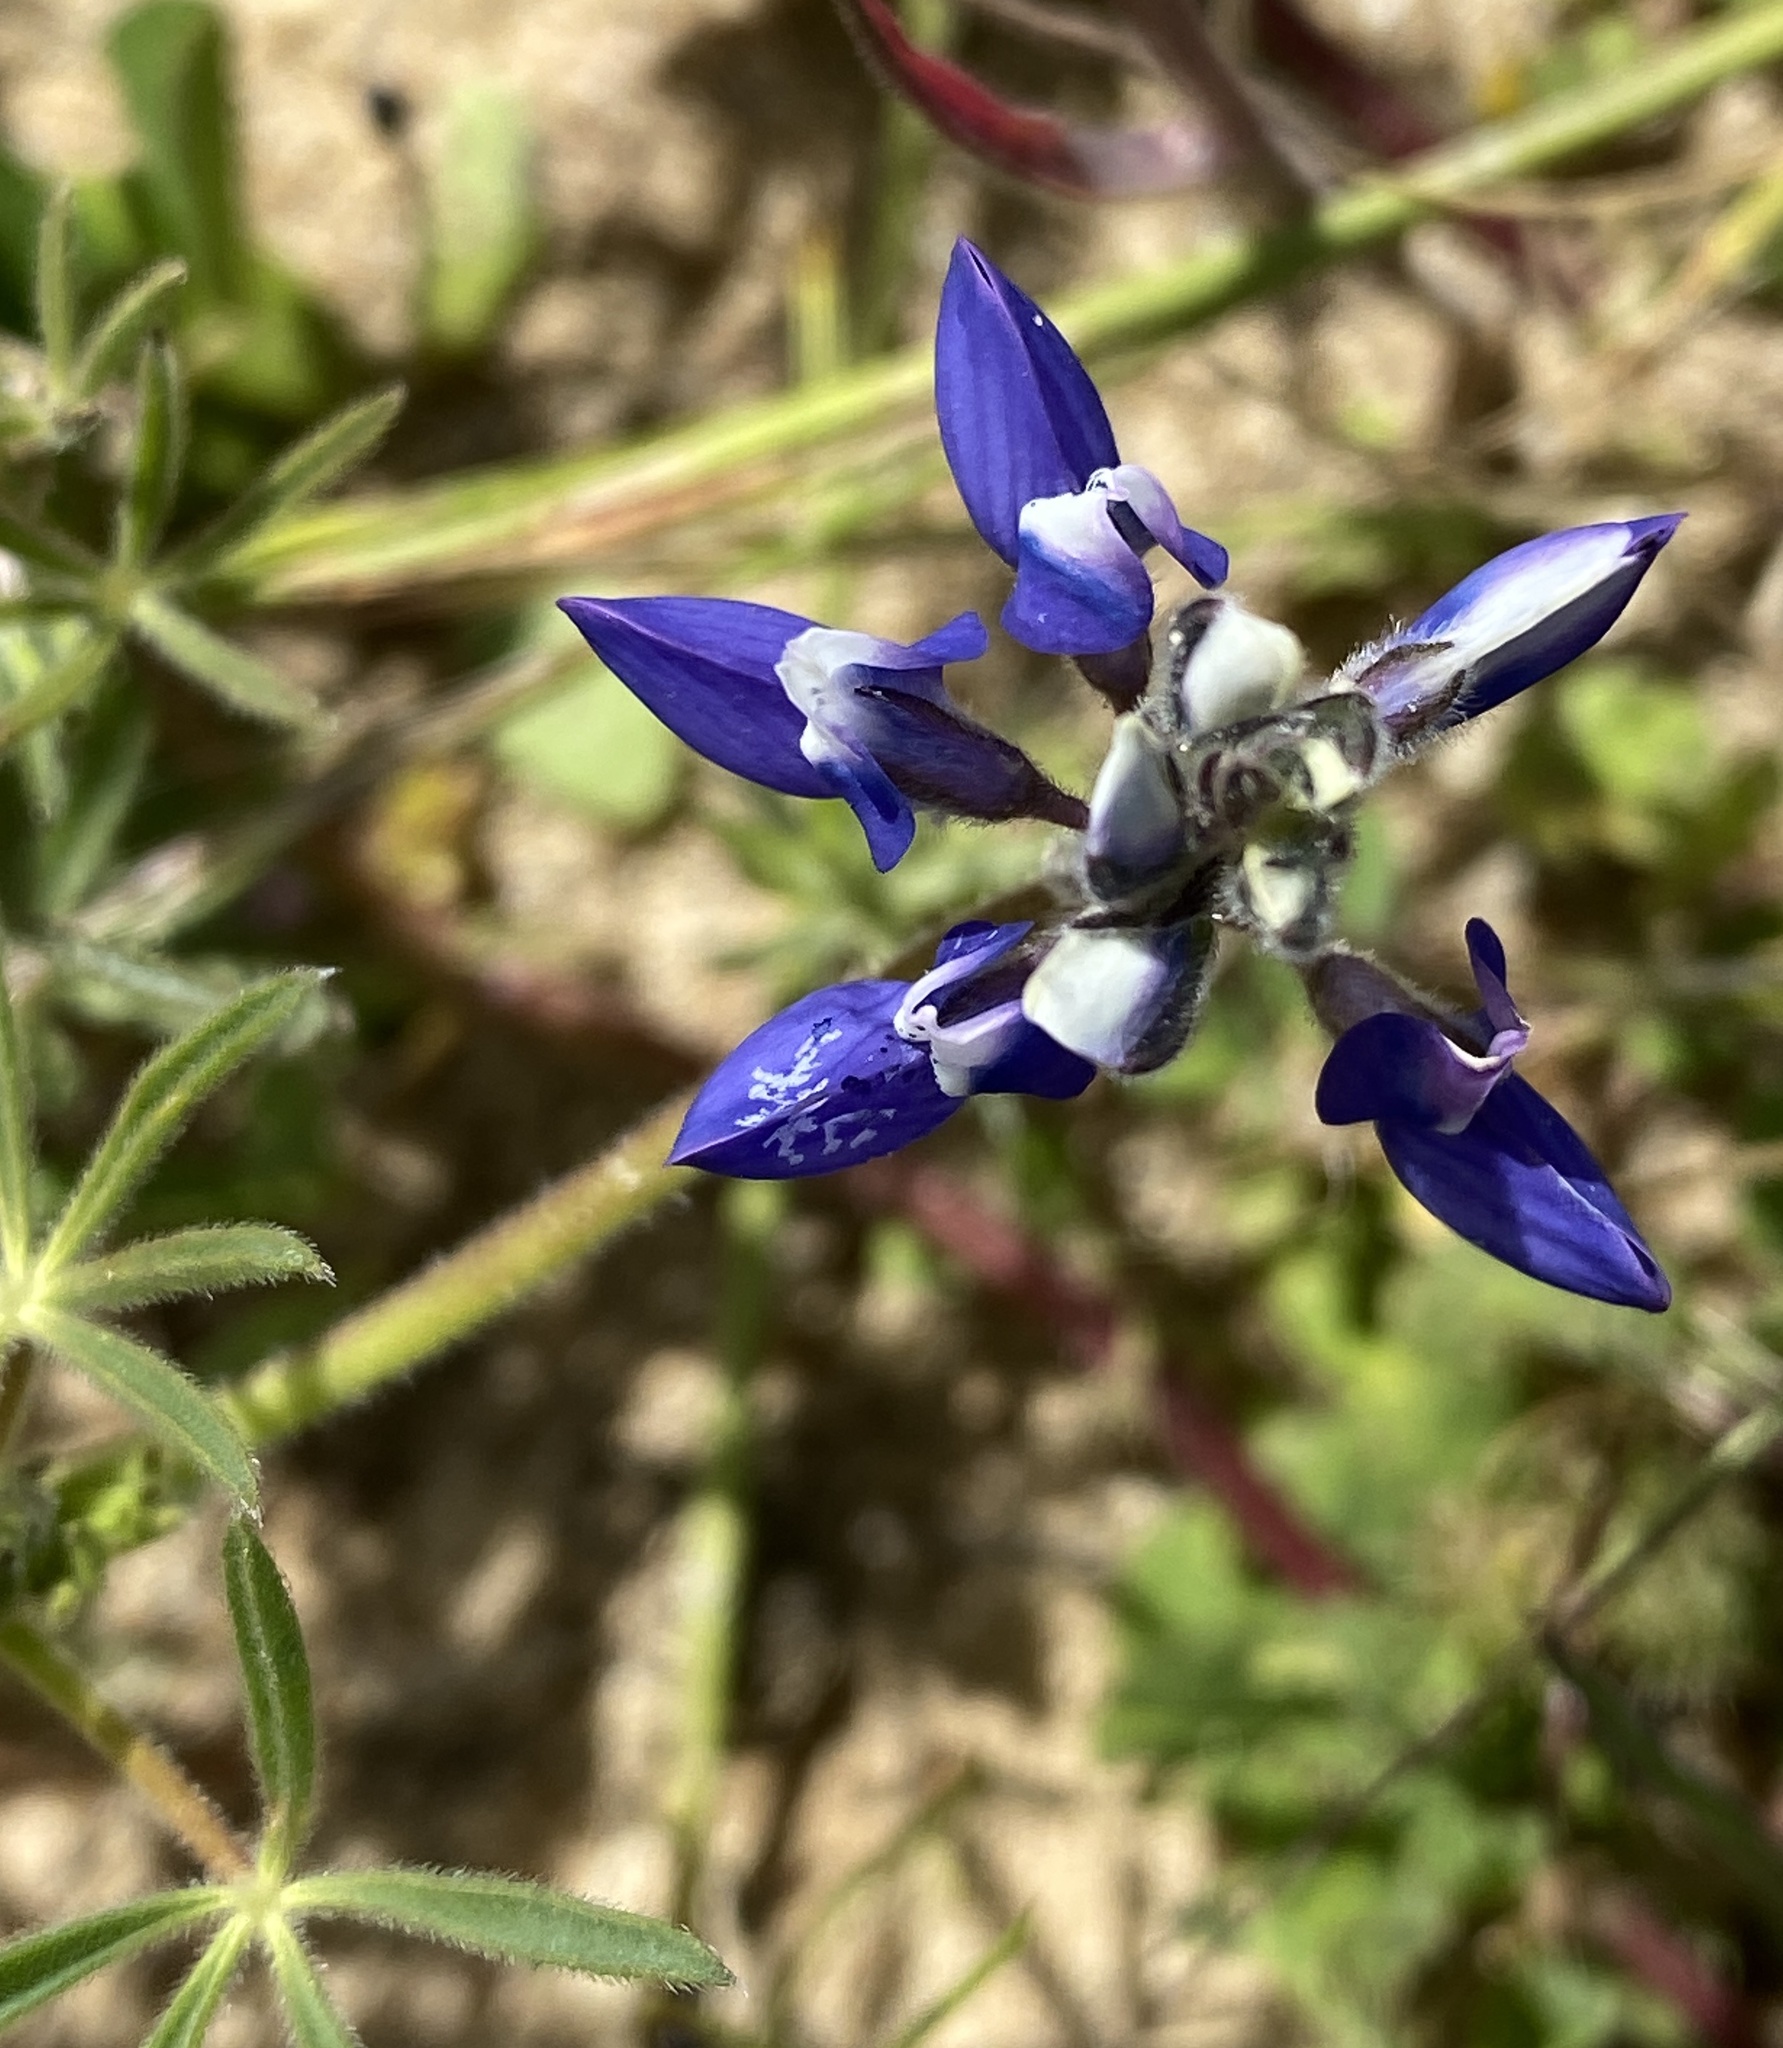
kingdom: Plantae
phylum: Tracheophyta
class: Magnoliopsida
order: Fabales
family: Fabaceae
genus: Lupinus
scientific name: Lupinus bicolor
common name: Miniature lupine
